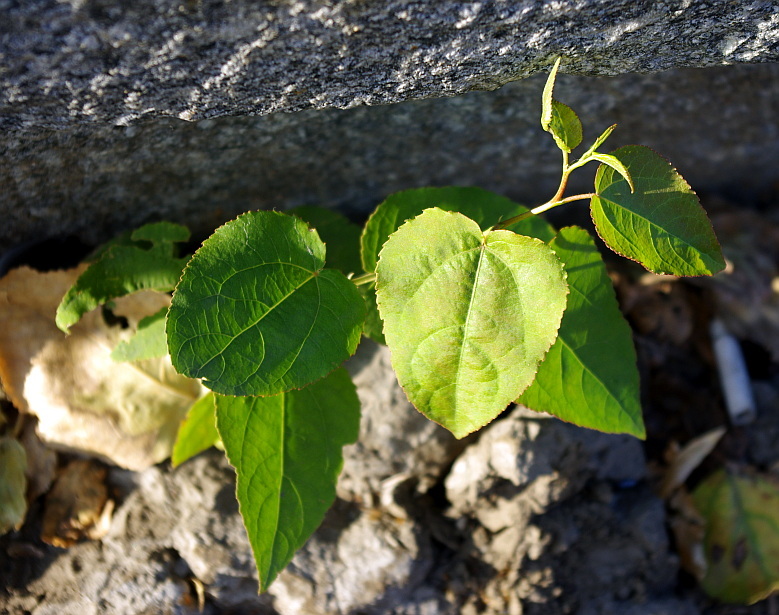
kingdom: Plantae
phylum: Tracheophyta
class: Magnoliopsida
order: Malpighiales
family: Salicaceae
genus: Populus
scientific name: Populus
